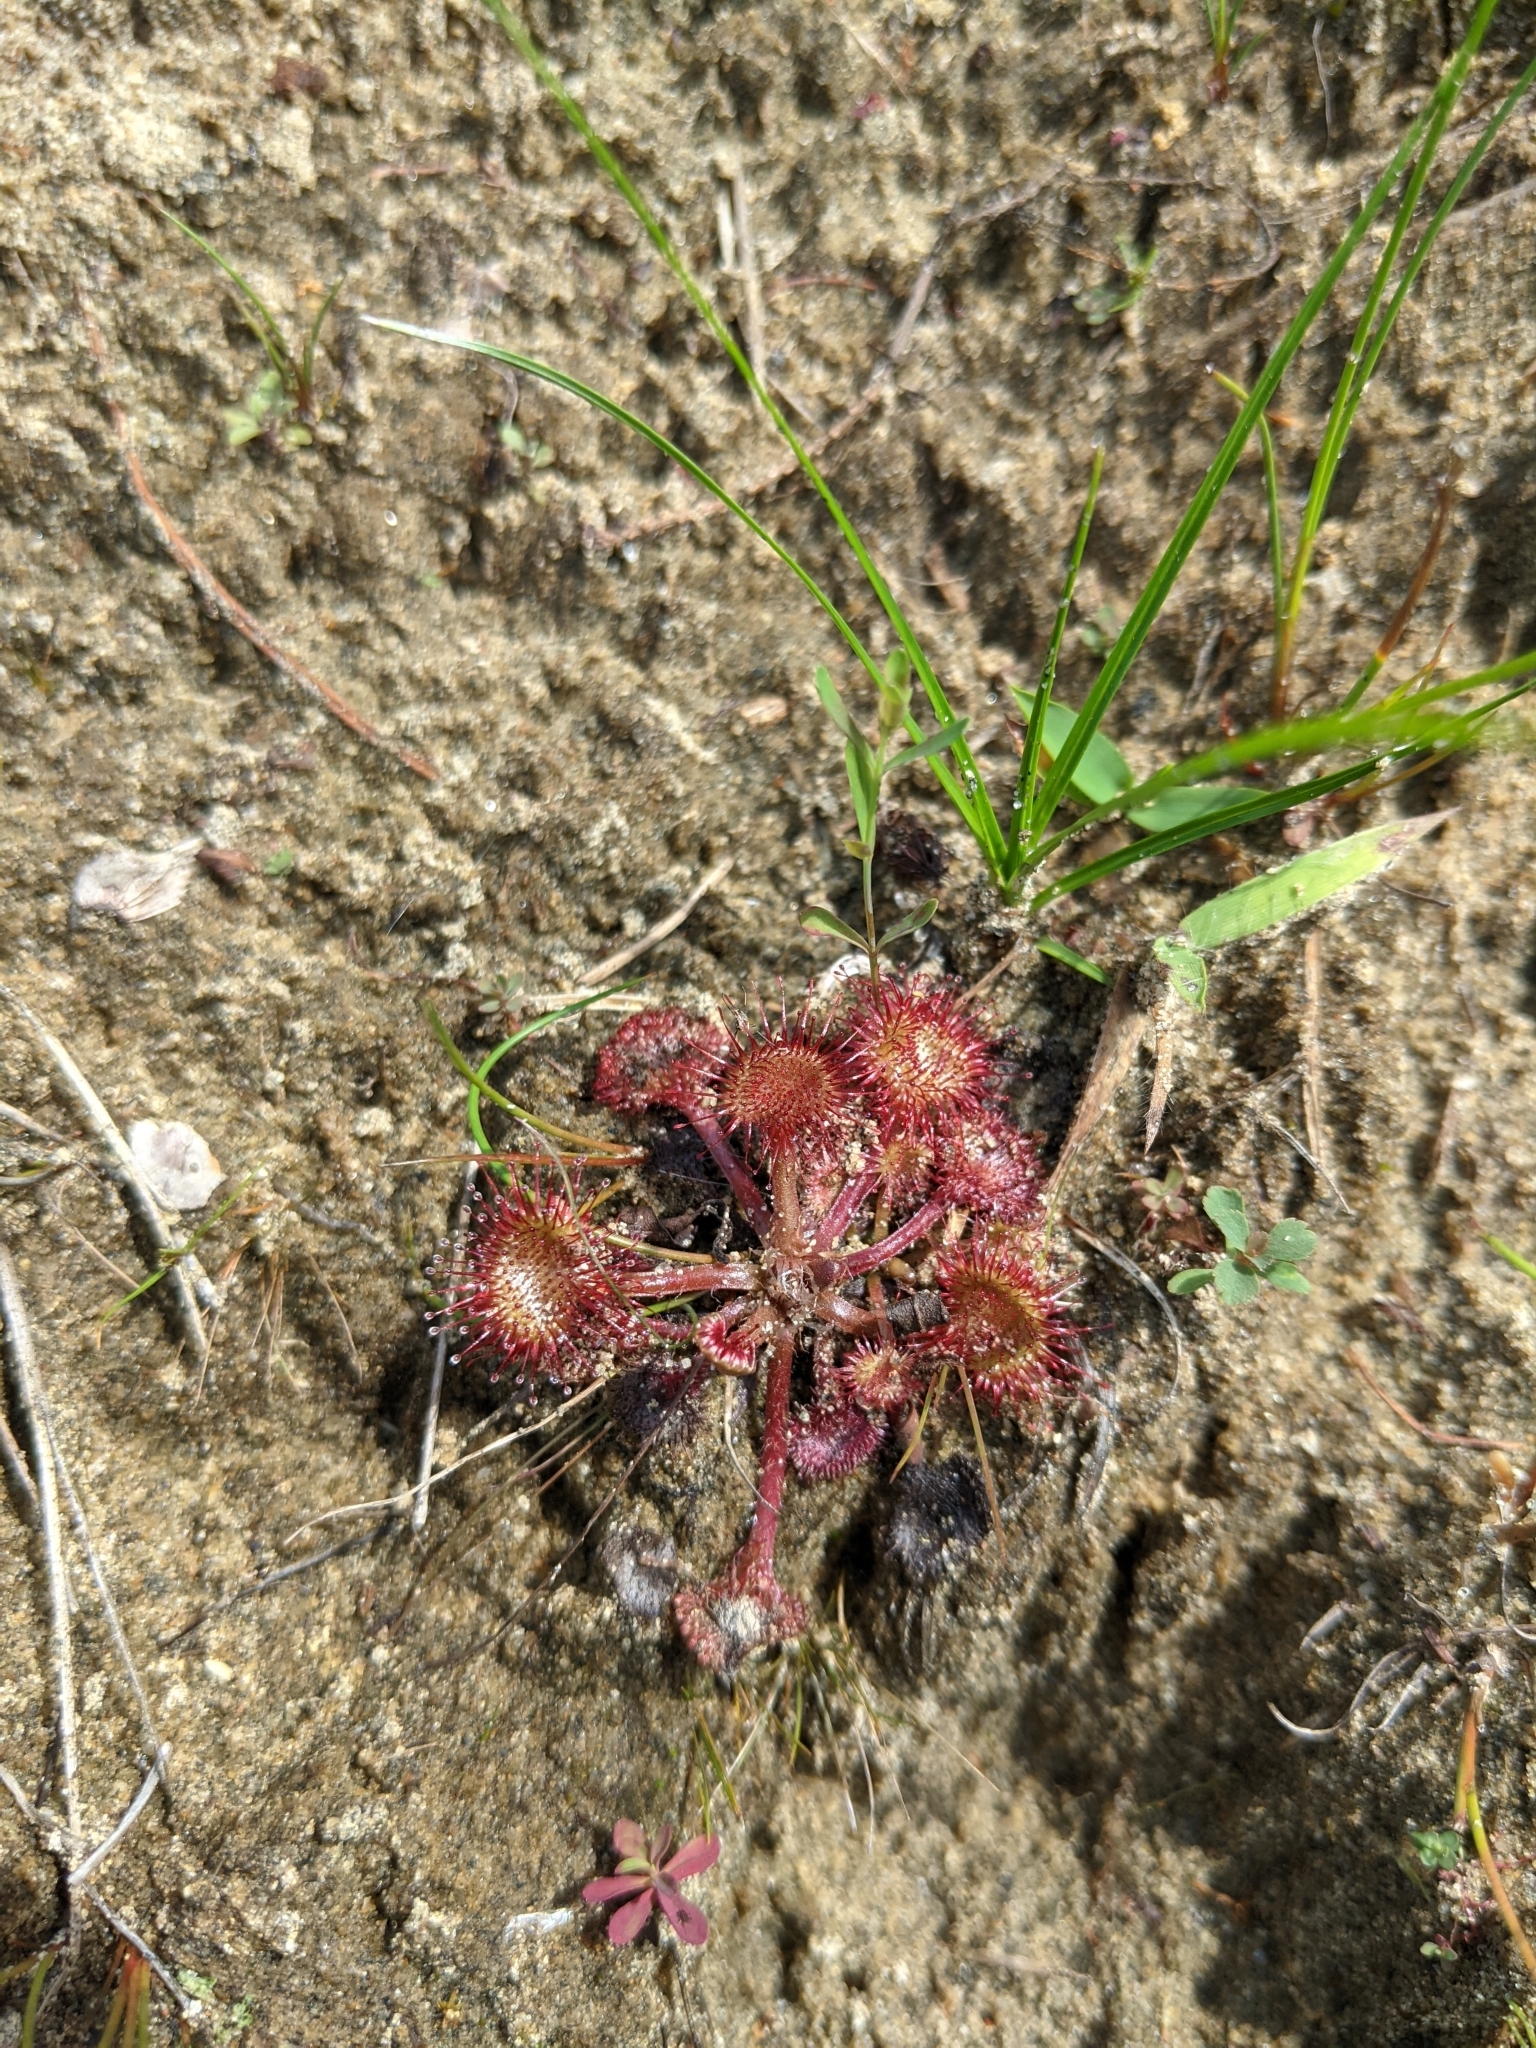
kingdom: Plantae
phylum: Tracheophyta
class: Magnoliopsida
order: Caryophyllales
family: Droseraceae
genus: Drosera
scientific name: Drosera rotundifolia
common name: Round-leaved sundew
